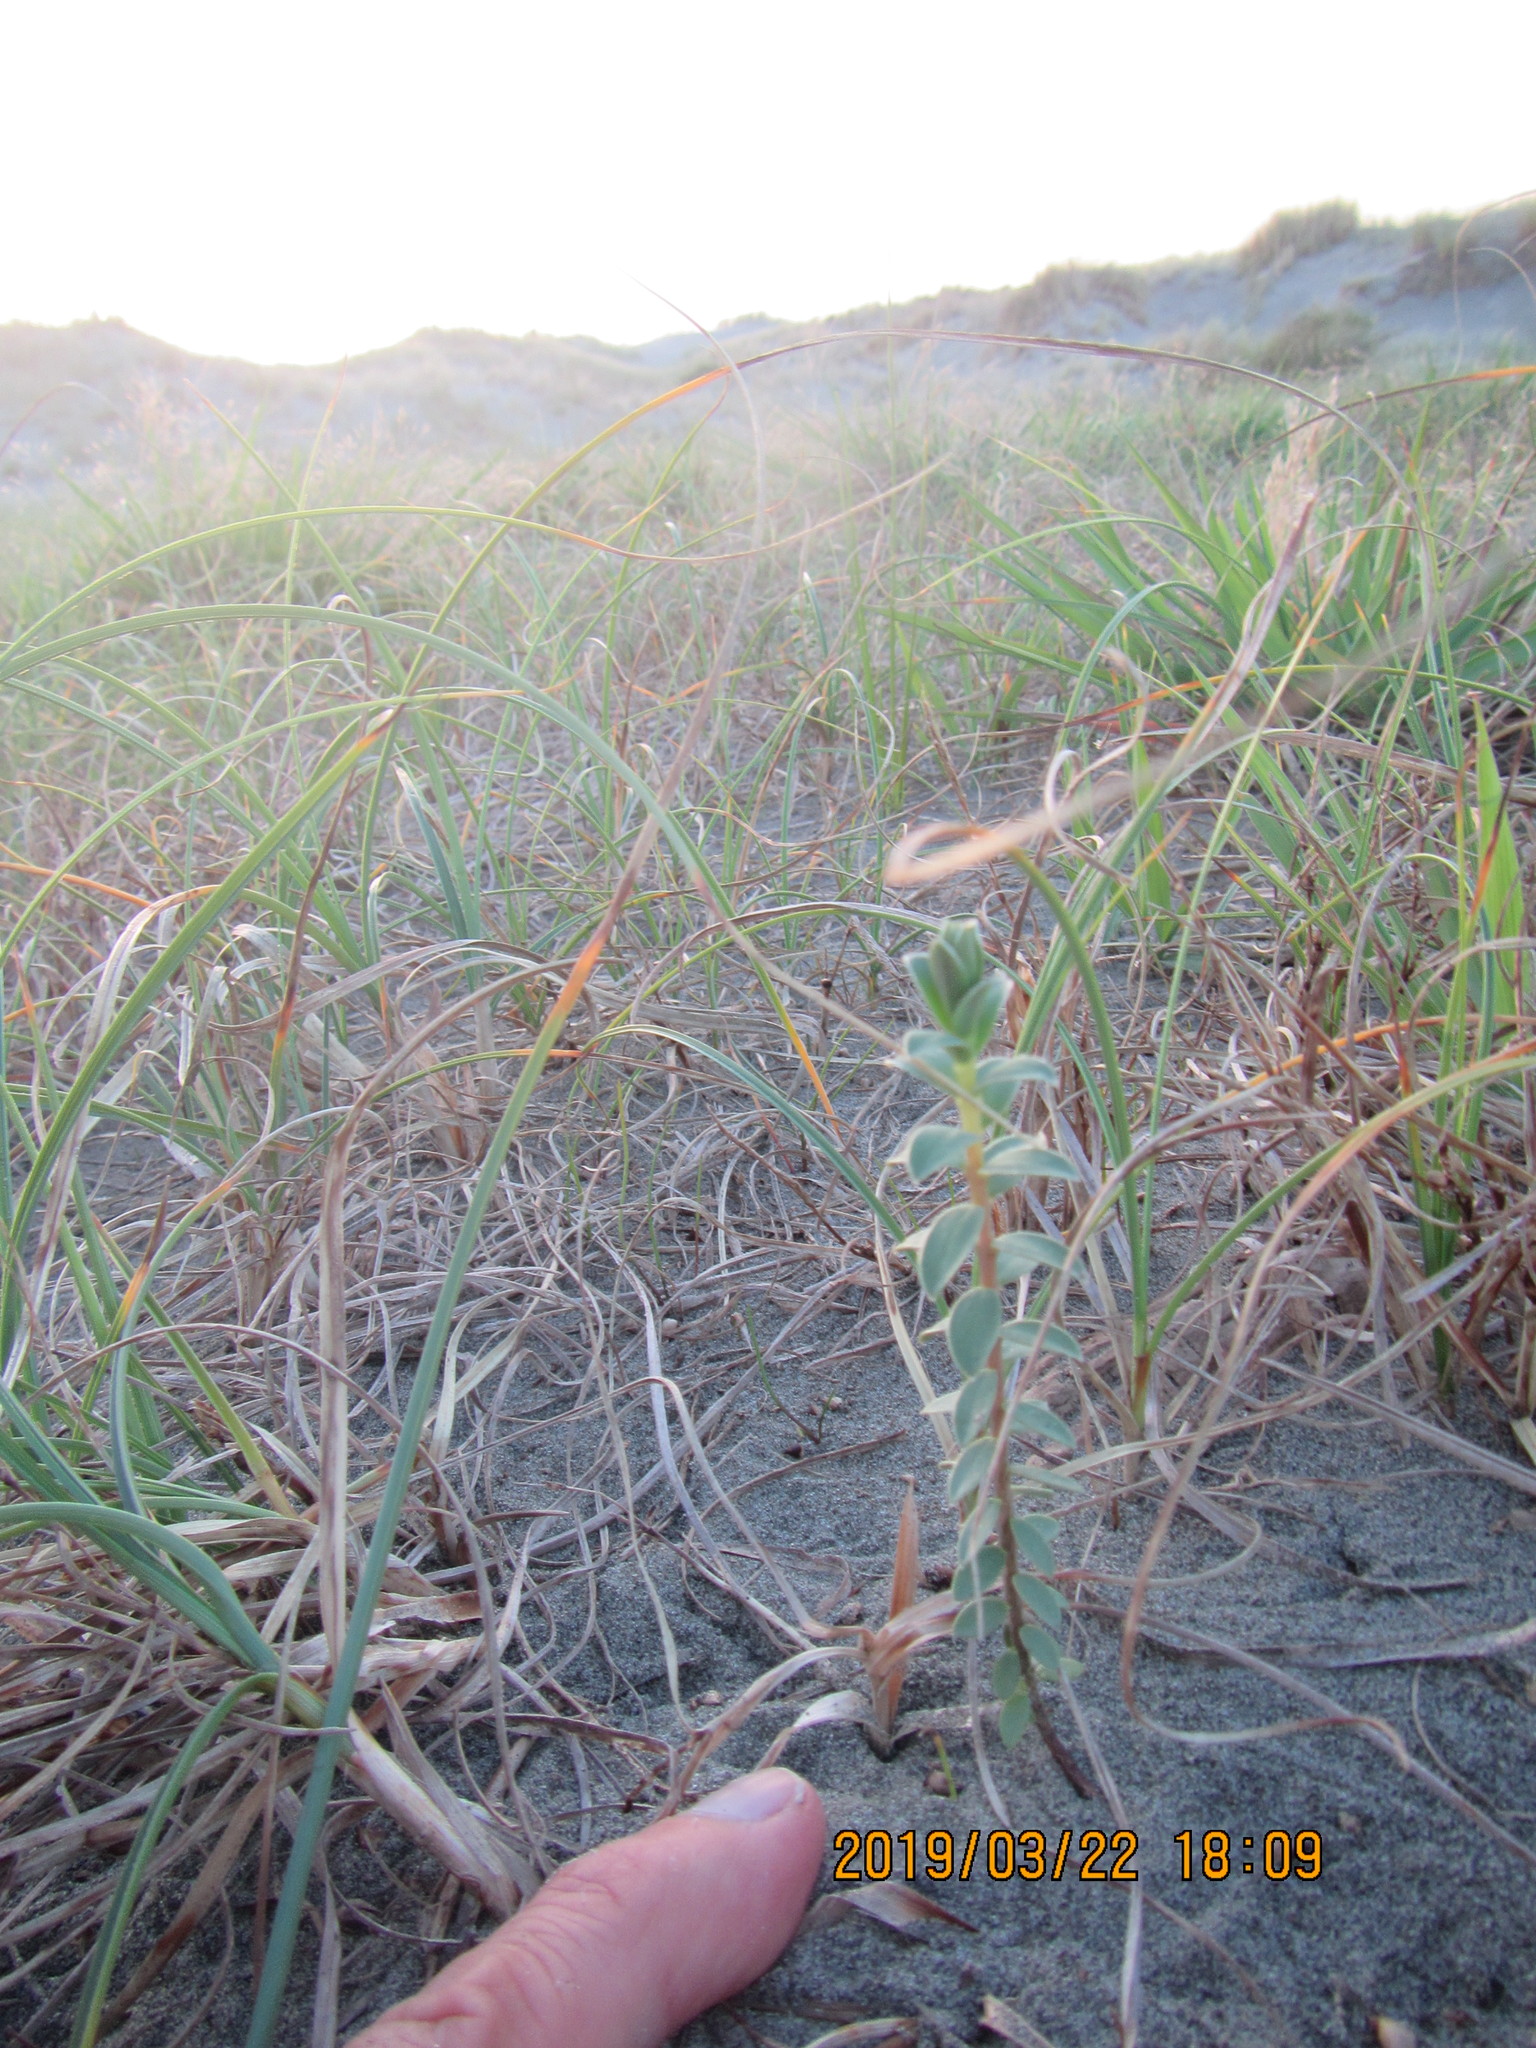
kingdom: Plantae
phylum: Tracheophyta
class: Magnoliopsida
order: Malvales
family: Thymelaeaceae
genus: Pimelea
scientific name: Pimelea villosa
